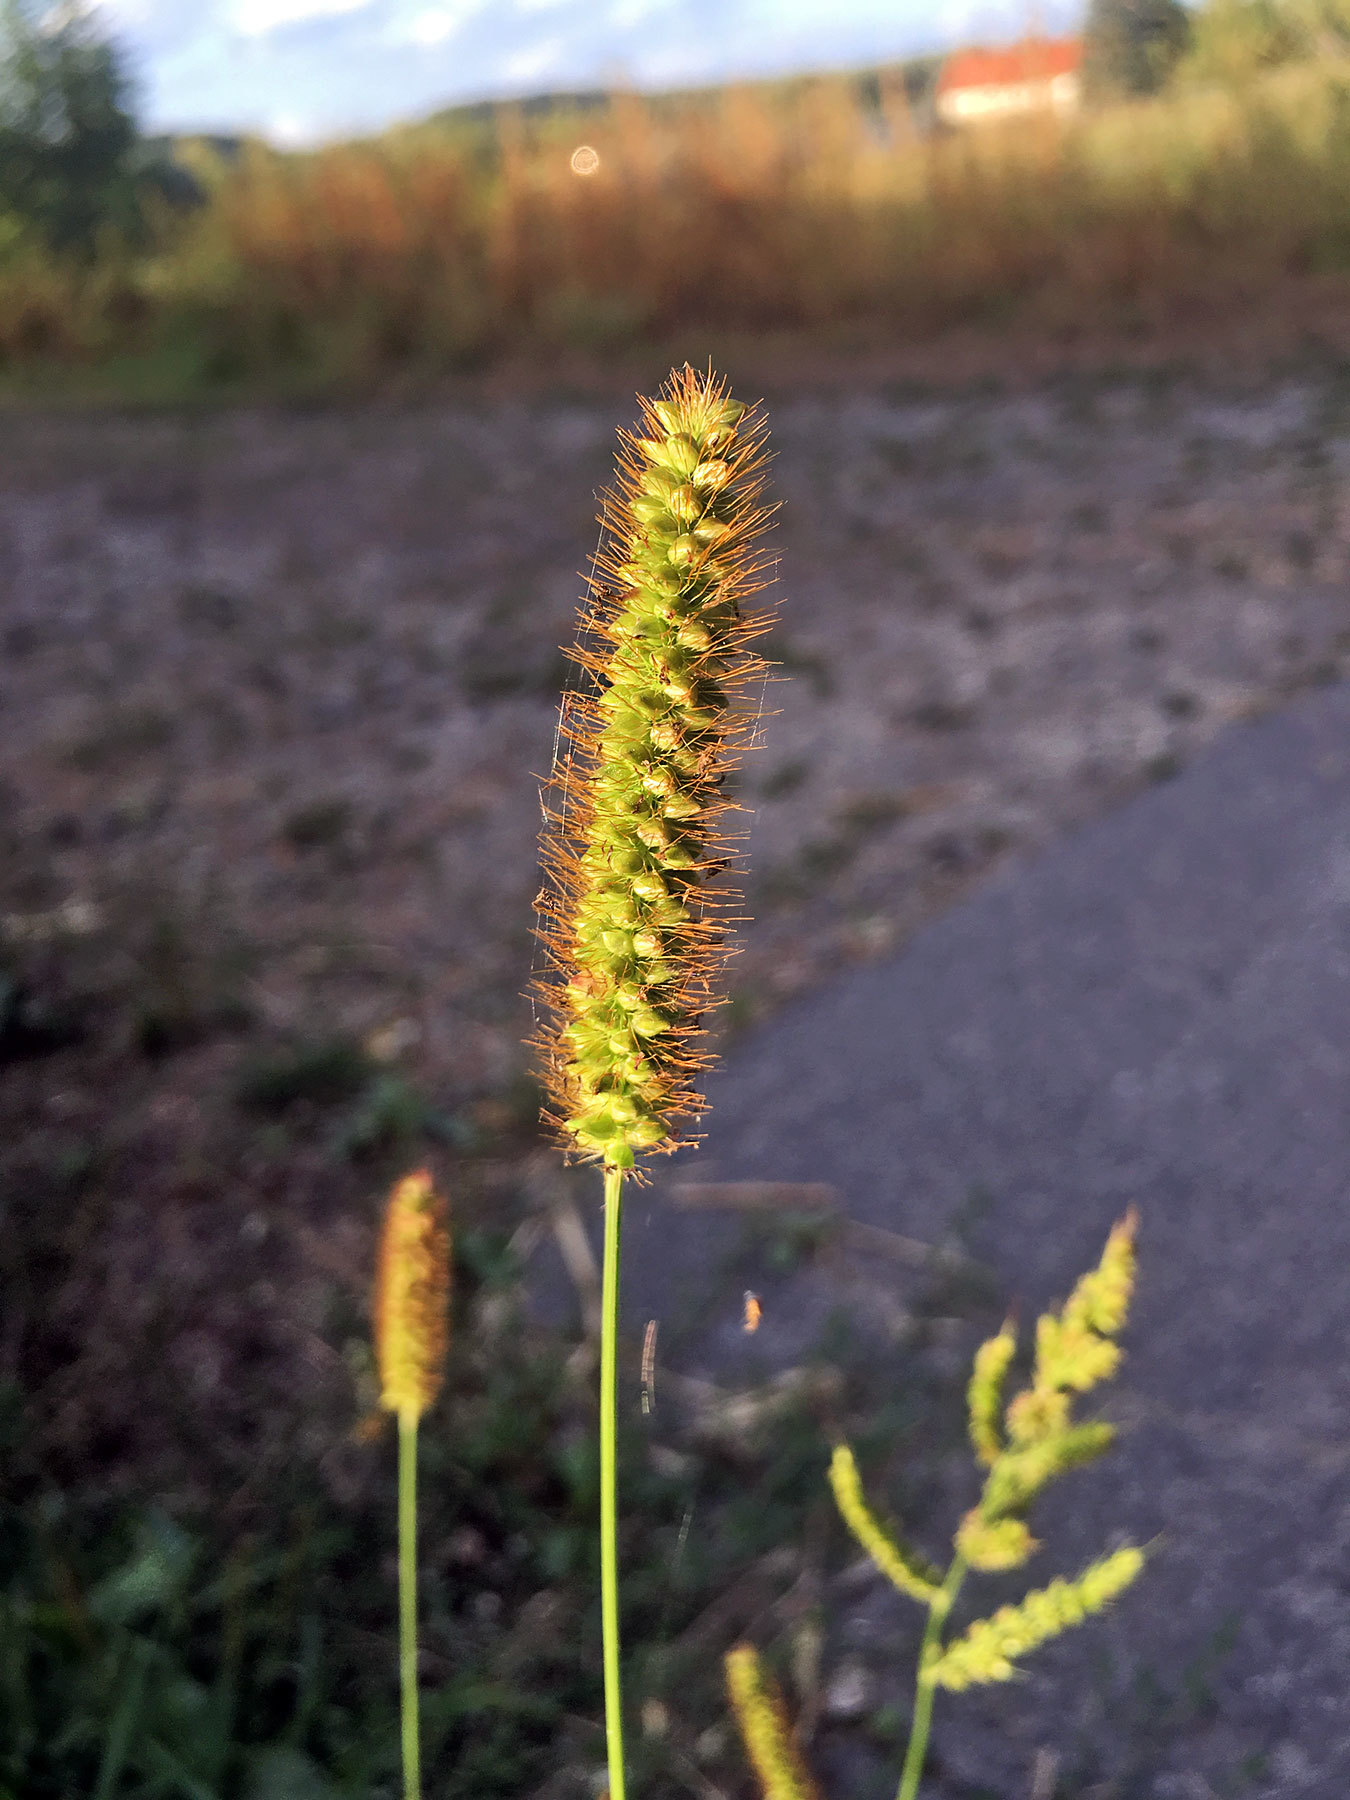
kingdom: Plantae
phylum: Tracheophyta
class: Liliopsida
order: Poales
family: Poaceae
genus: Setaria
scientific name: Setaria pumila
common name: Yellow bristle-grass
